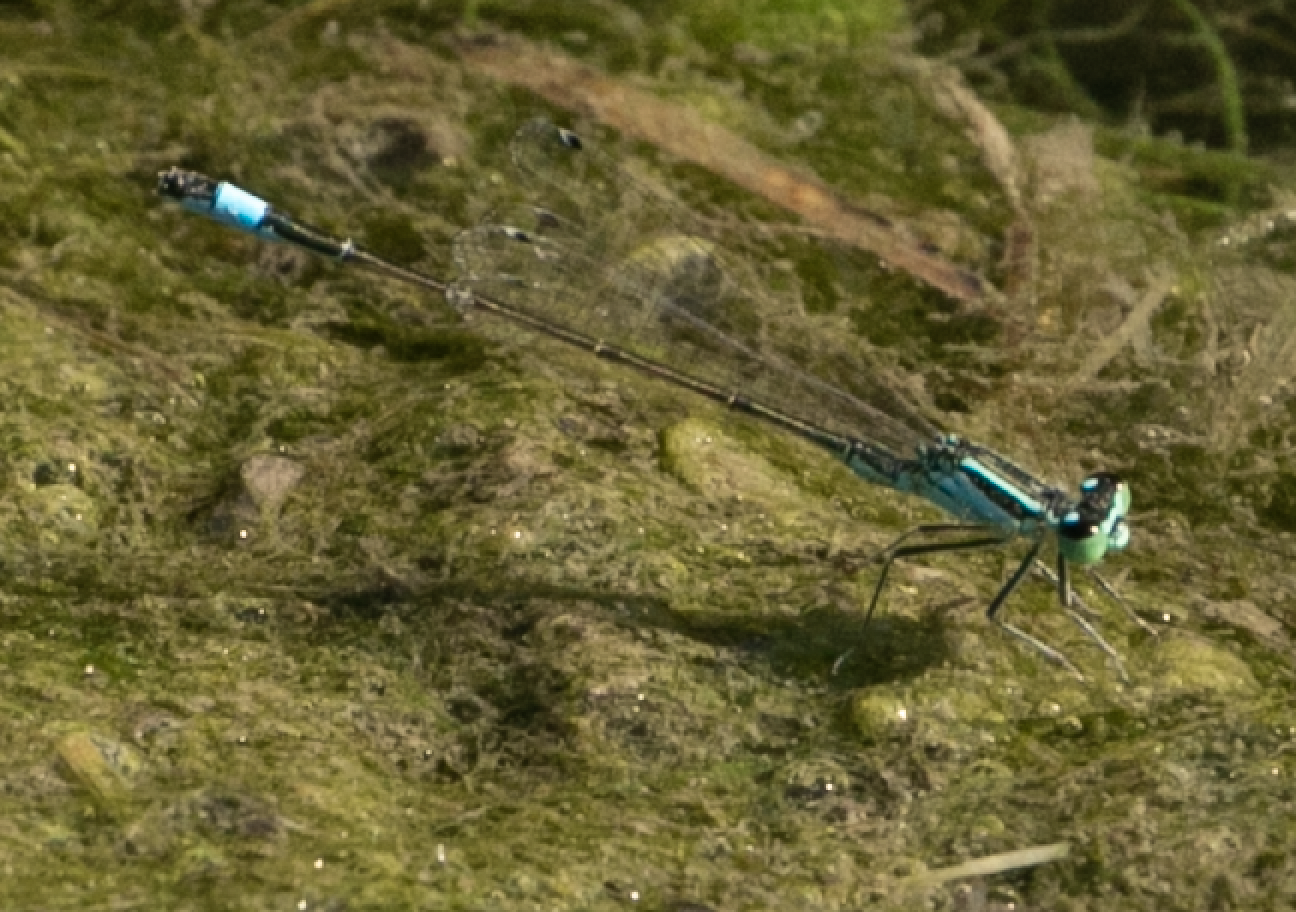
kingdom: Animalia
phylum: Arthropoda
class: Insecta
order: Odonata
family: Coenagrionidae
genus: Ischnura
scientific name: Ischnura elegans
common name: Blue-tailed damselfly
